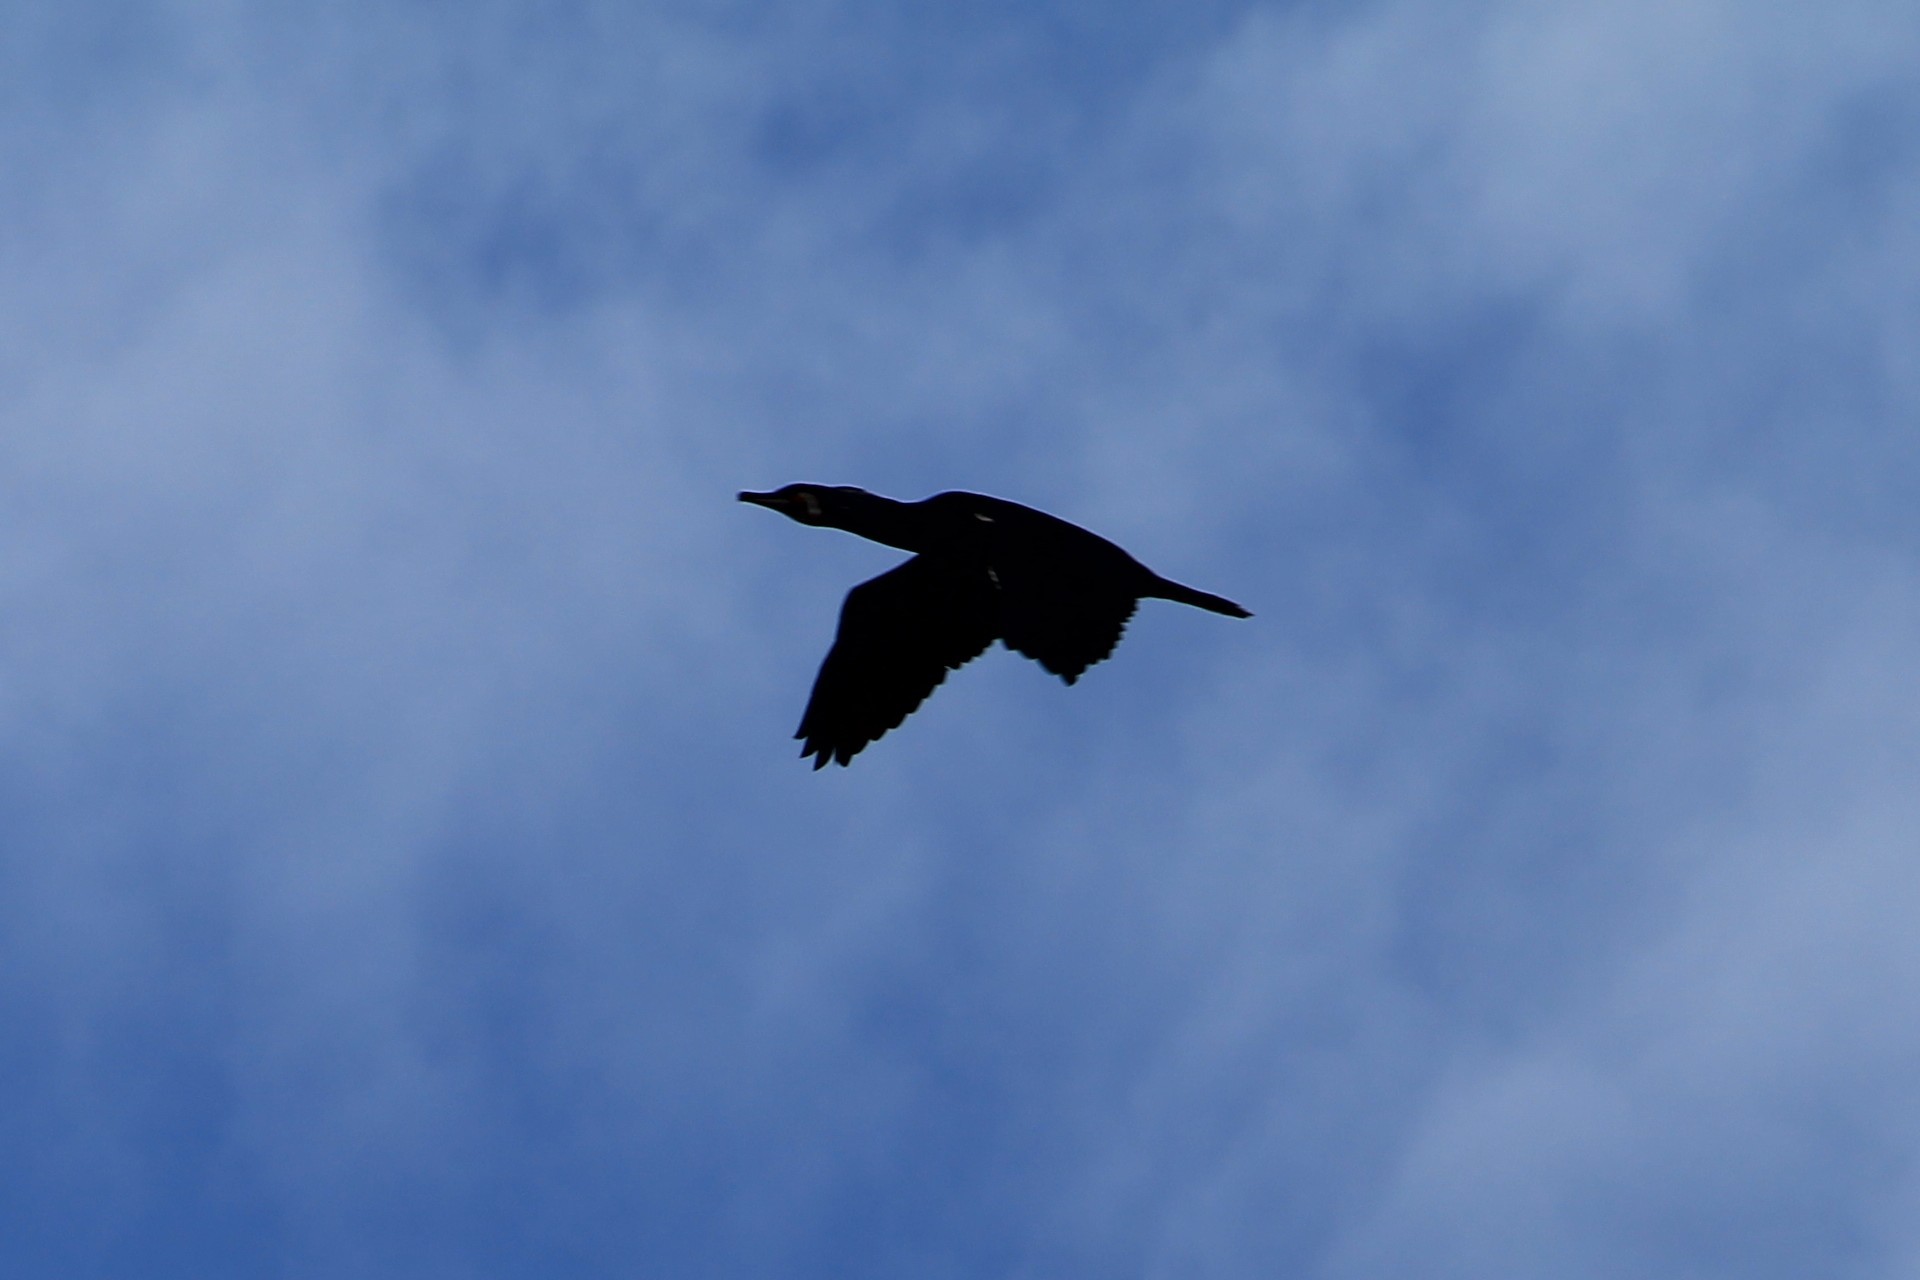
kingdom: Animalia
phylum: Chordata
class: Aves
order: Suliformes
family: Phalacrocoracidae
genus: Phalacrocorax
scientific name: Phalacrocorax carbo
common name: Great cormorant
